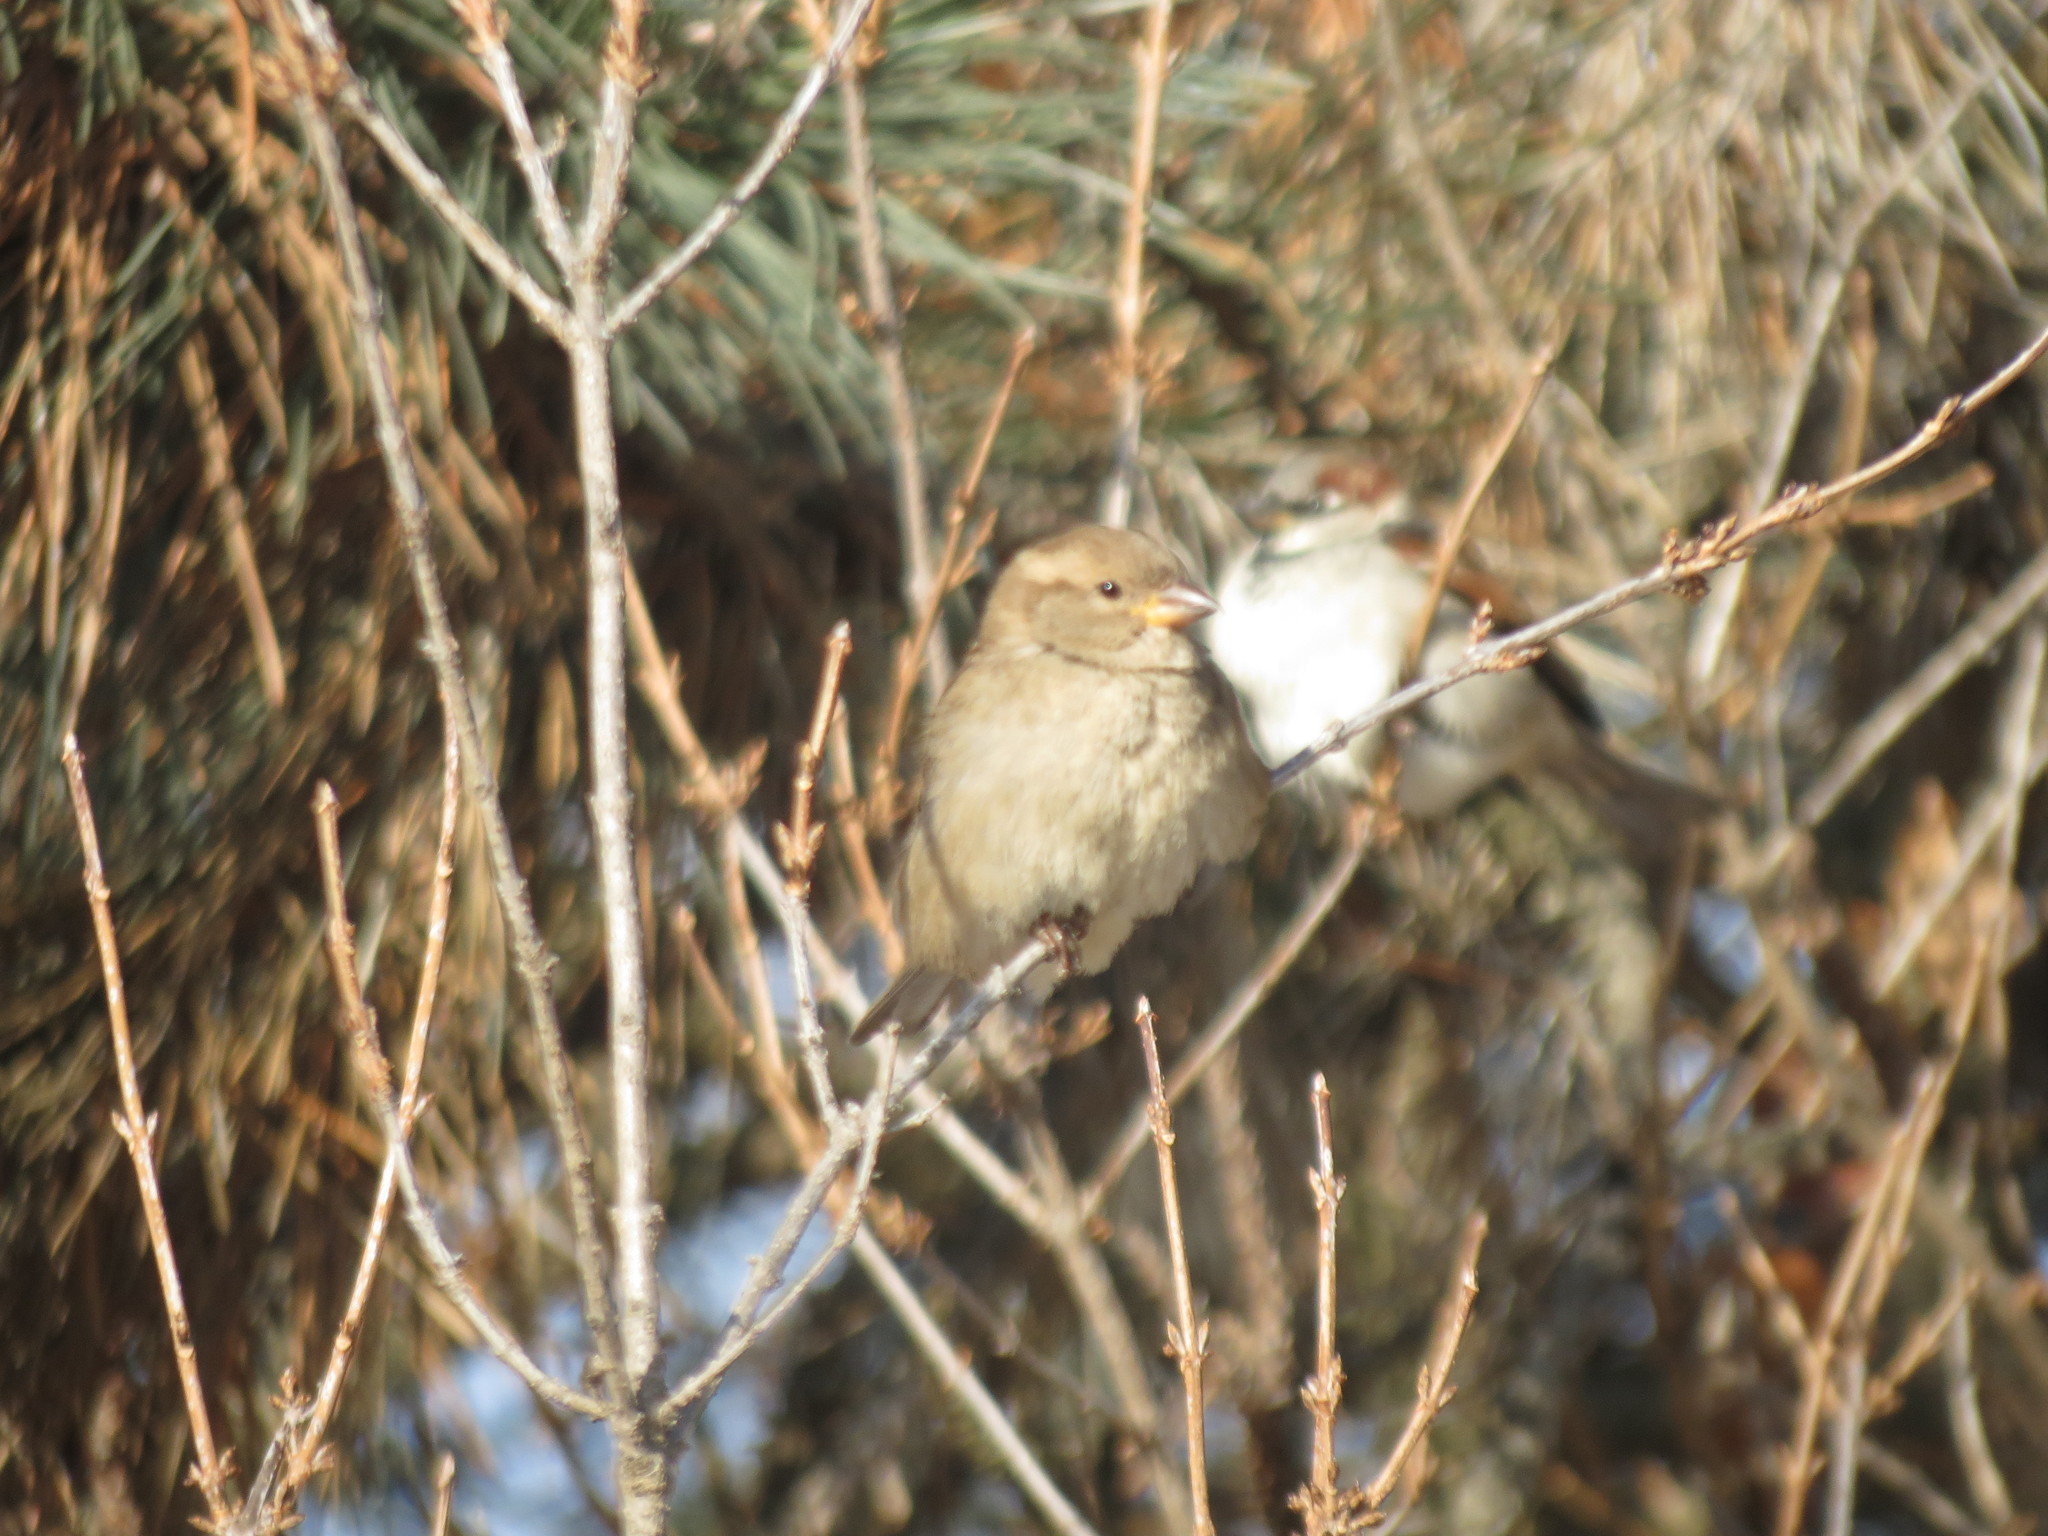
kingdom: Animalia
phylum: Chordata
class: Aves
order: Passeriformes
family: Passeridae
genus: Passer
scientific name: Passer domesticus
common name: House sparrow
